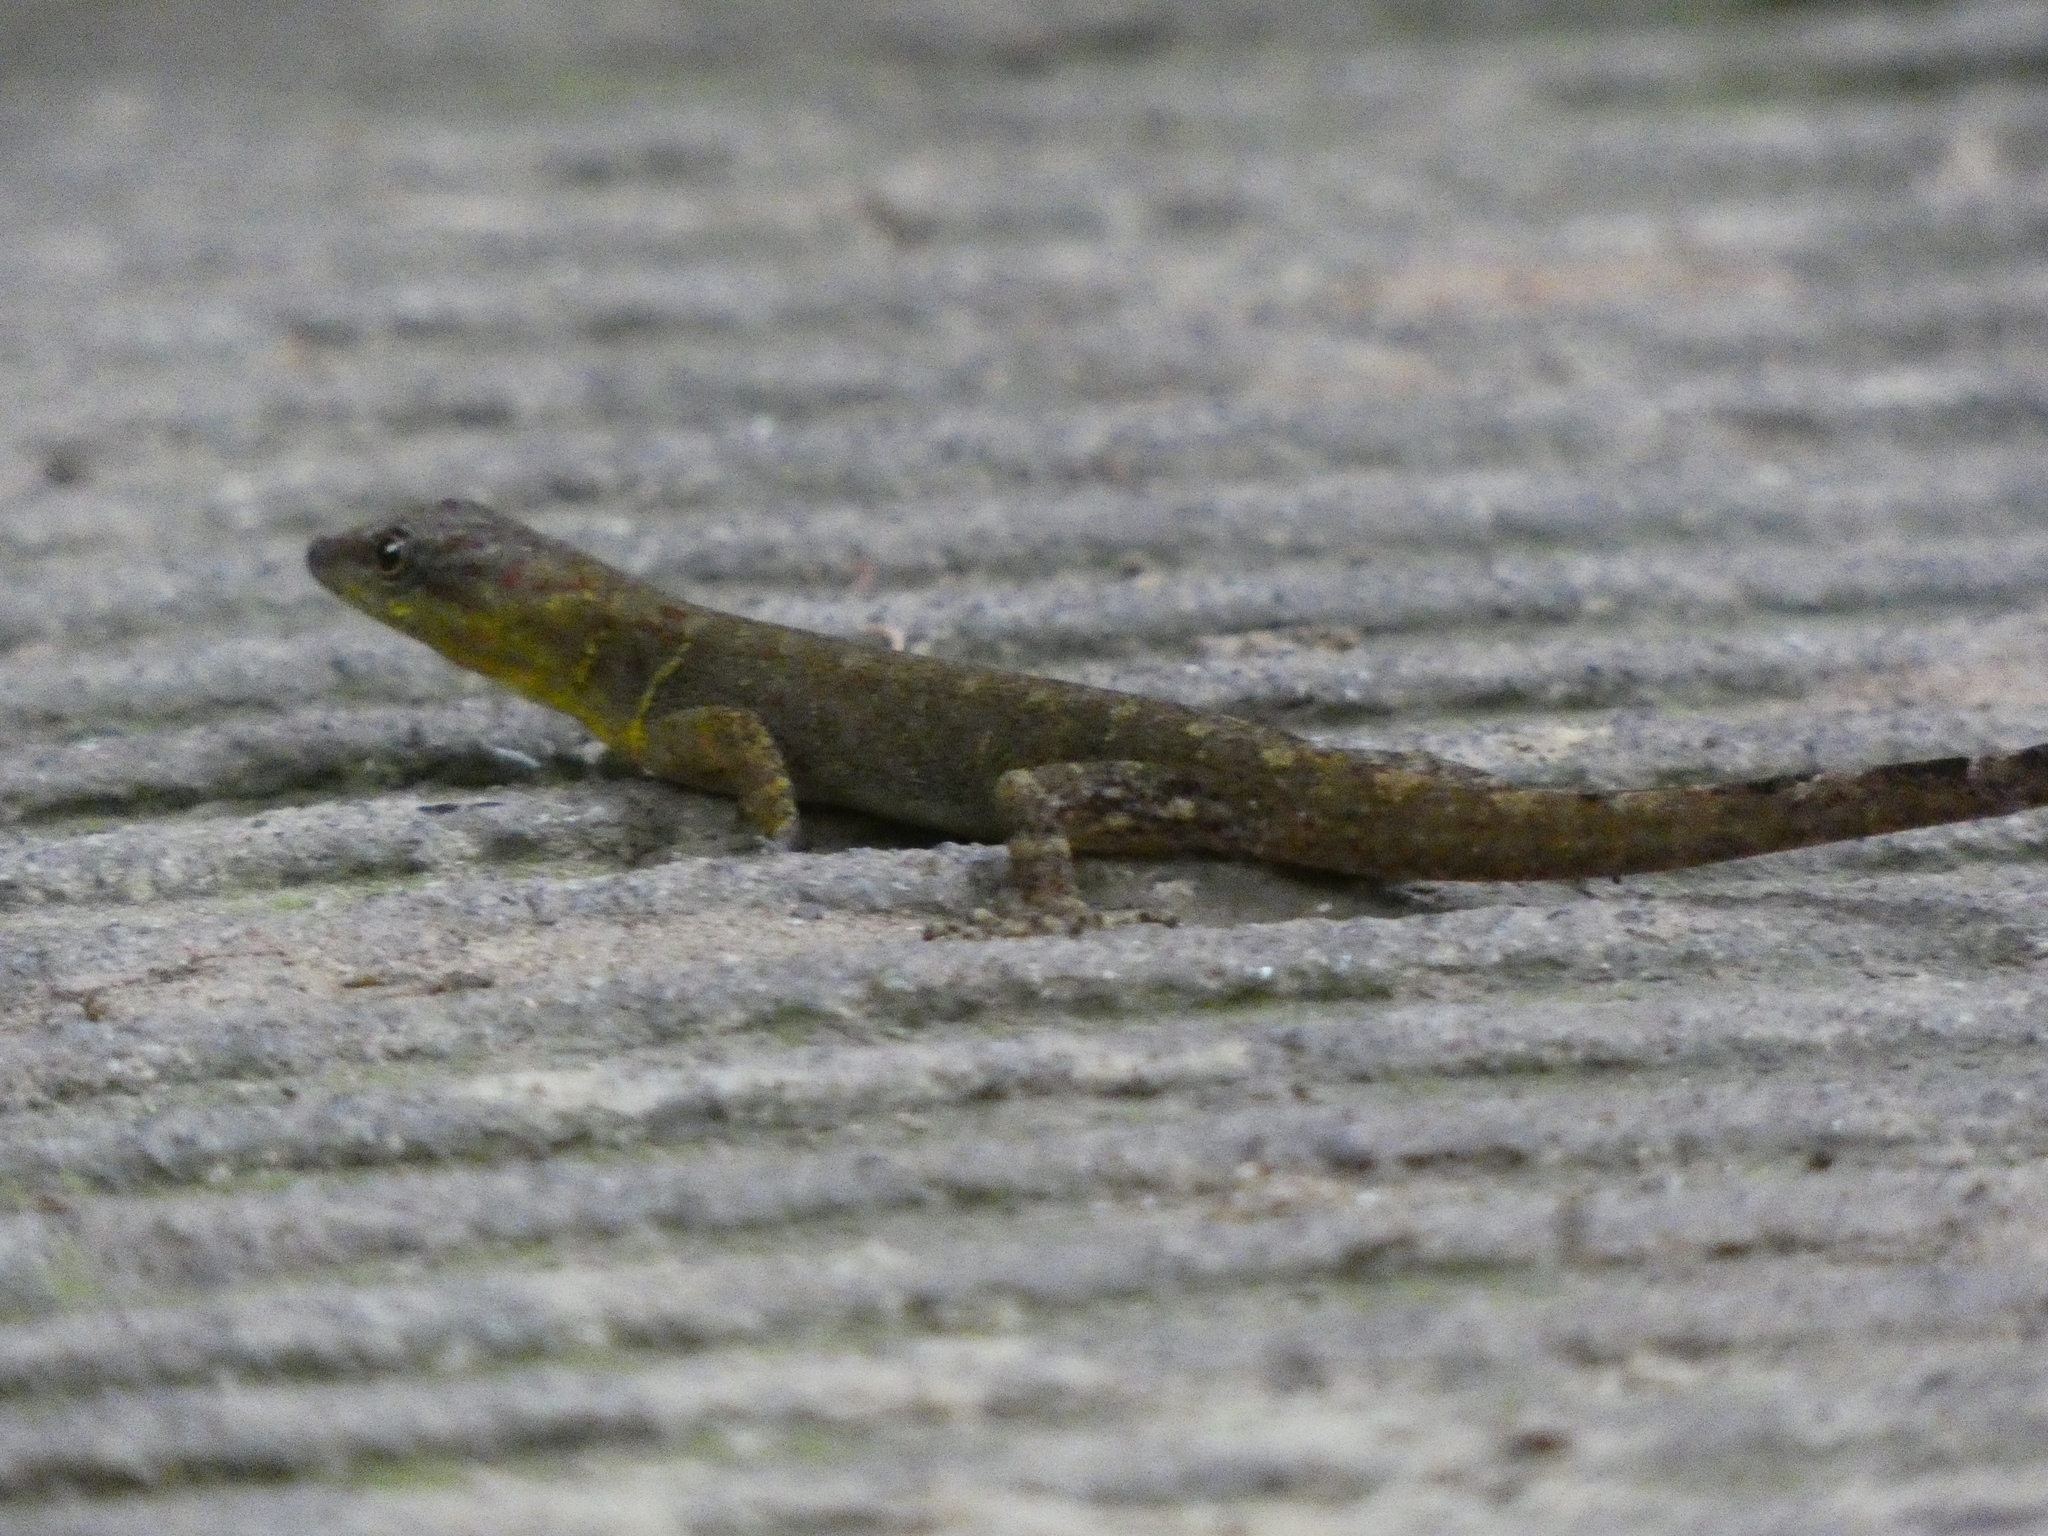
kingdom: Animalia
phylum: Chordata
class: Squamata
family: Sphaerodactylidae
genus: Gonatodes
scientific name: Gonatodes humeralis
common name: South american clawed gecko
